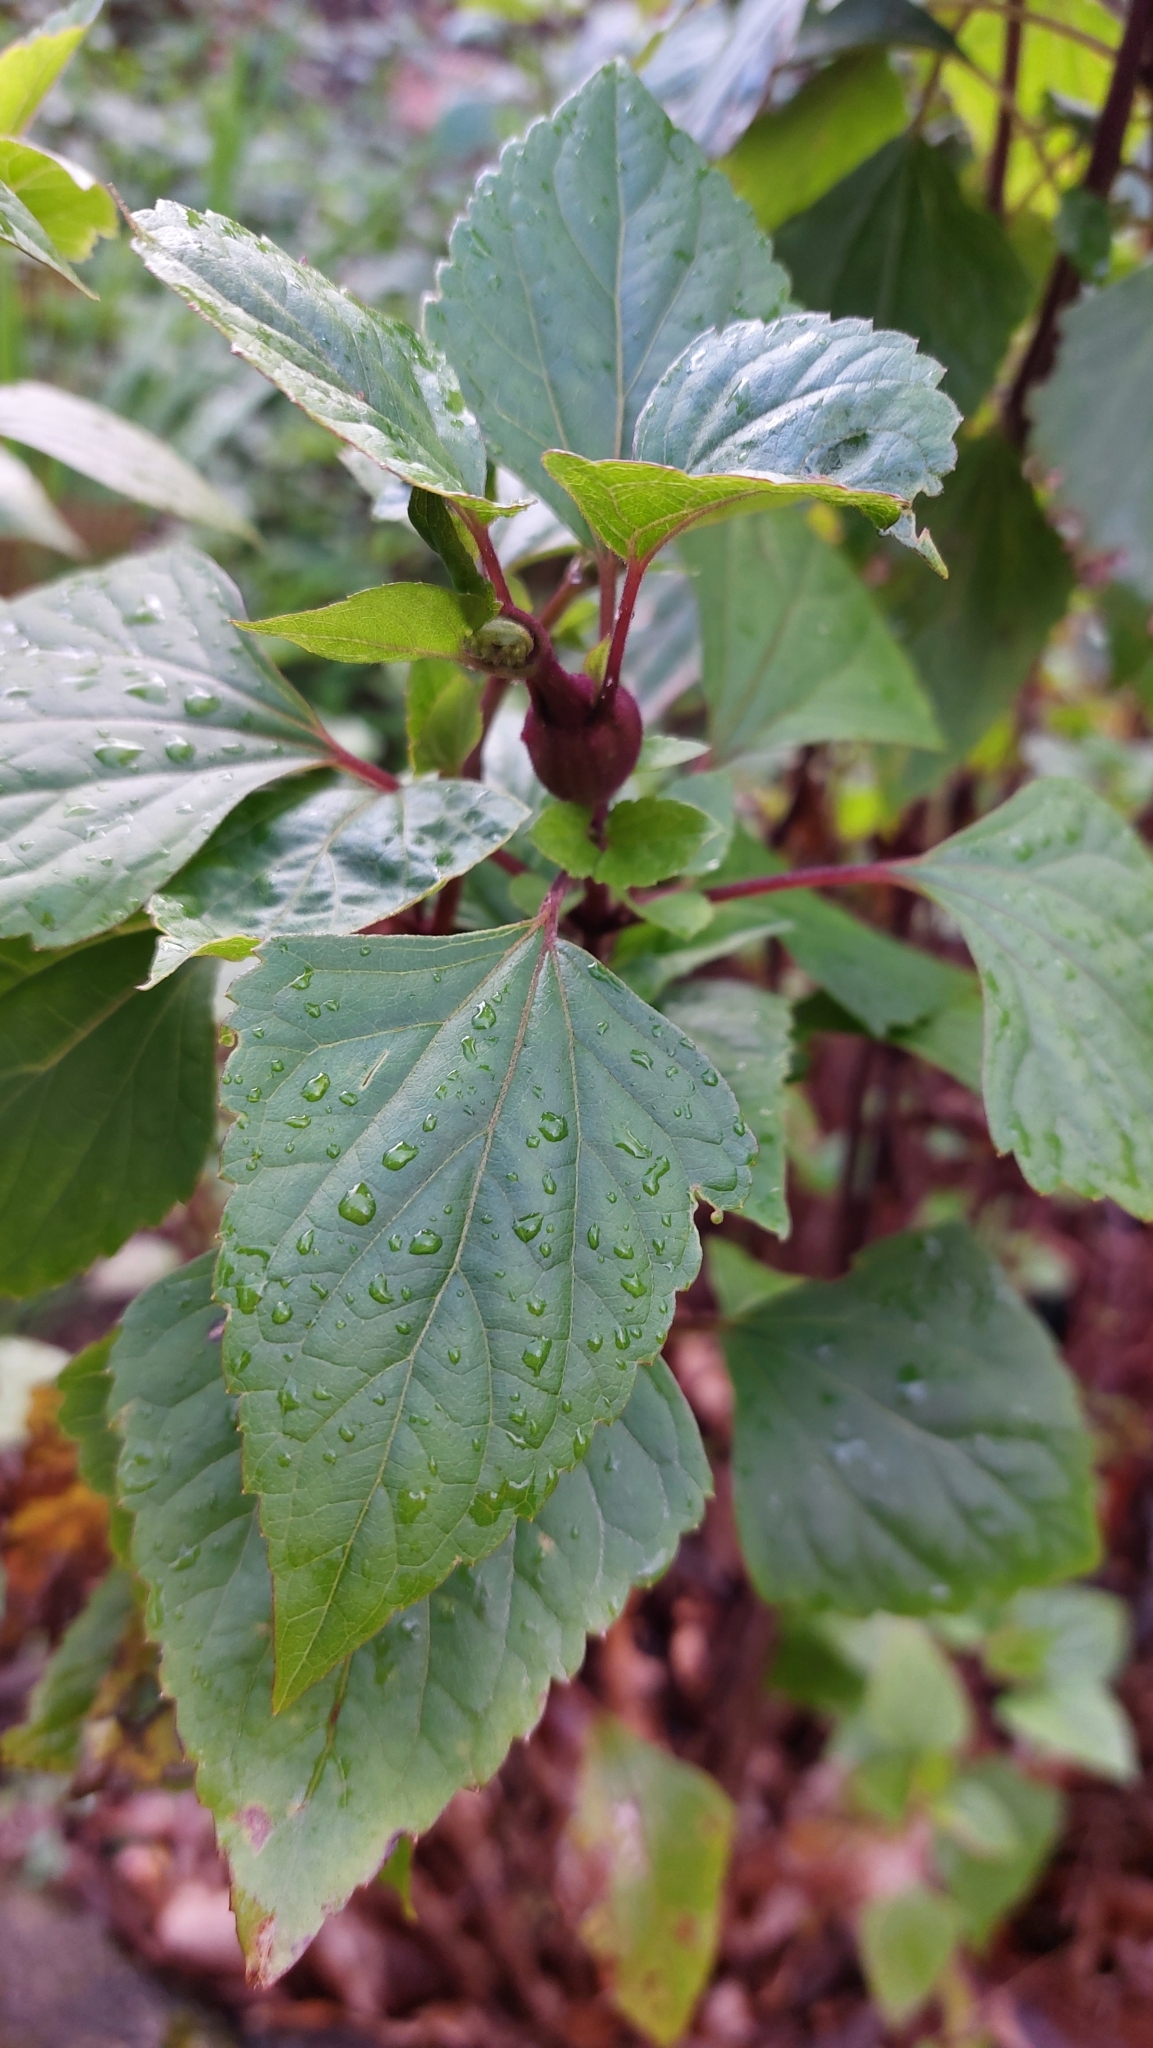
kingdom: Plantae
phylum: Tracheophyta
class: Magnoliopsida
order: Asterales
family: Asteraceae
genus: Ageratina
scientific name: Ageratina adenophora
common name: Sticky snakeroot
